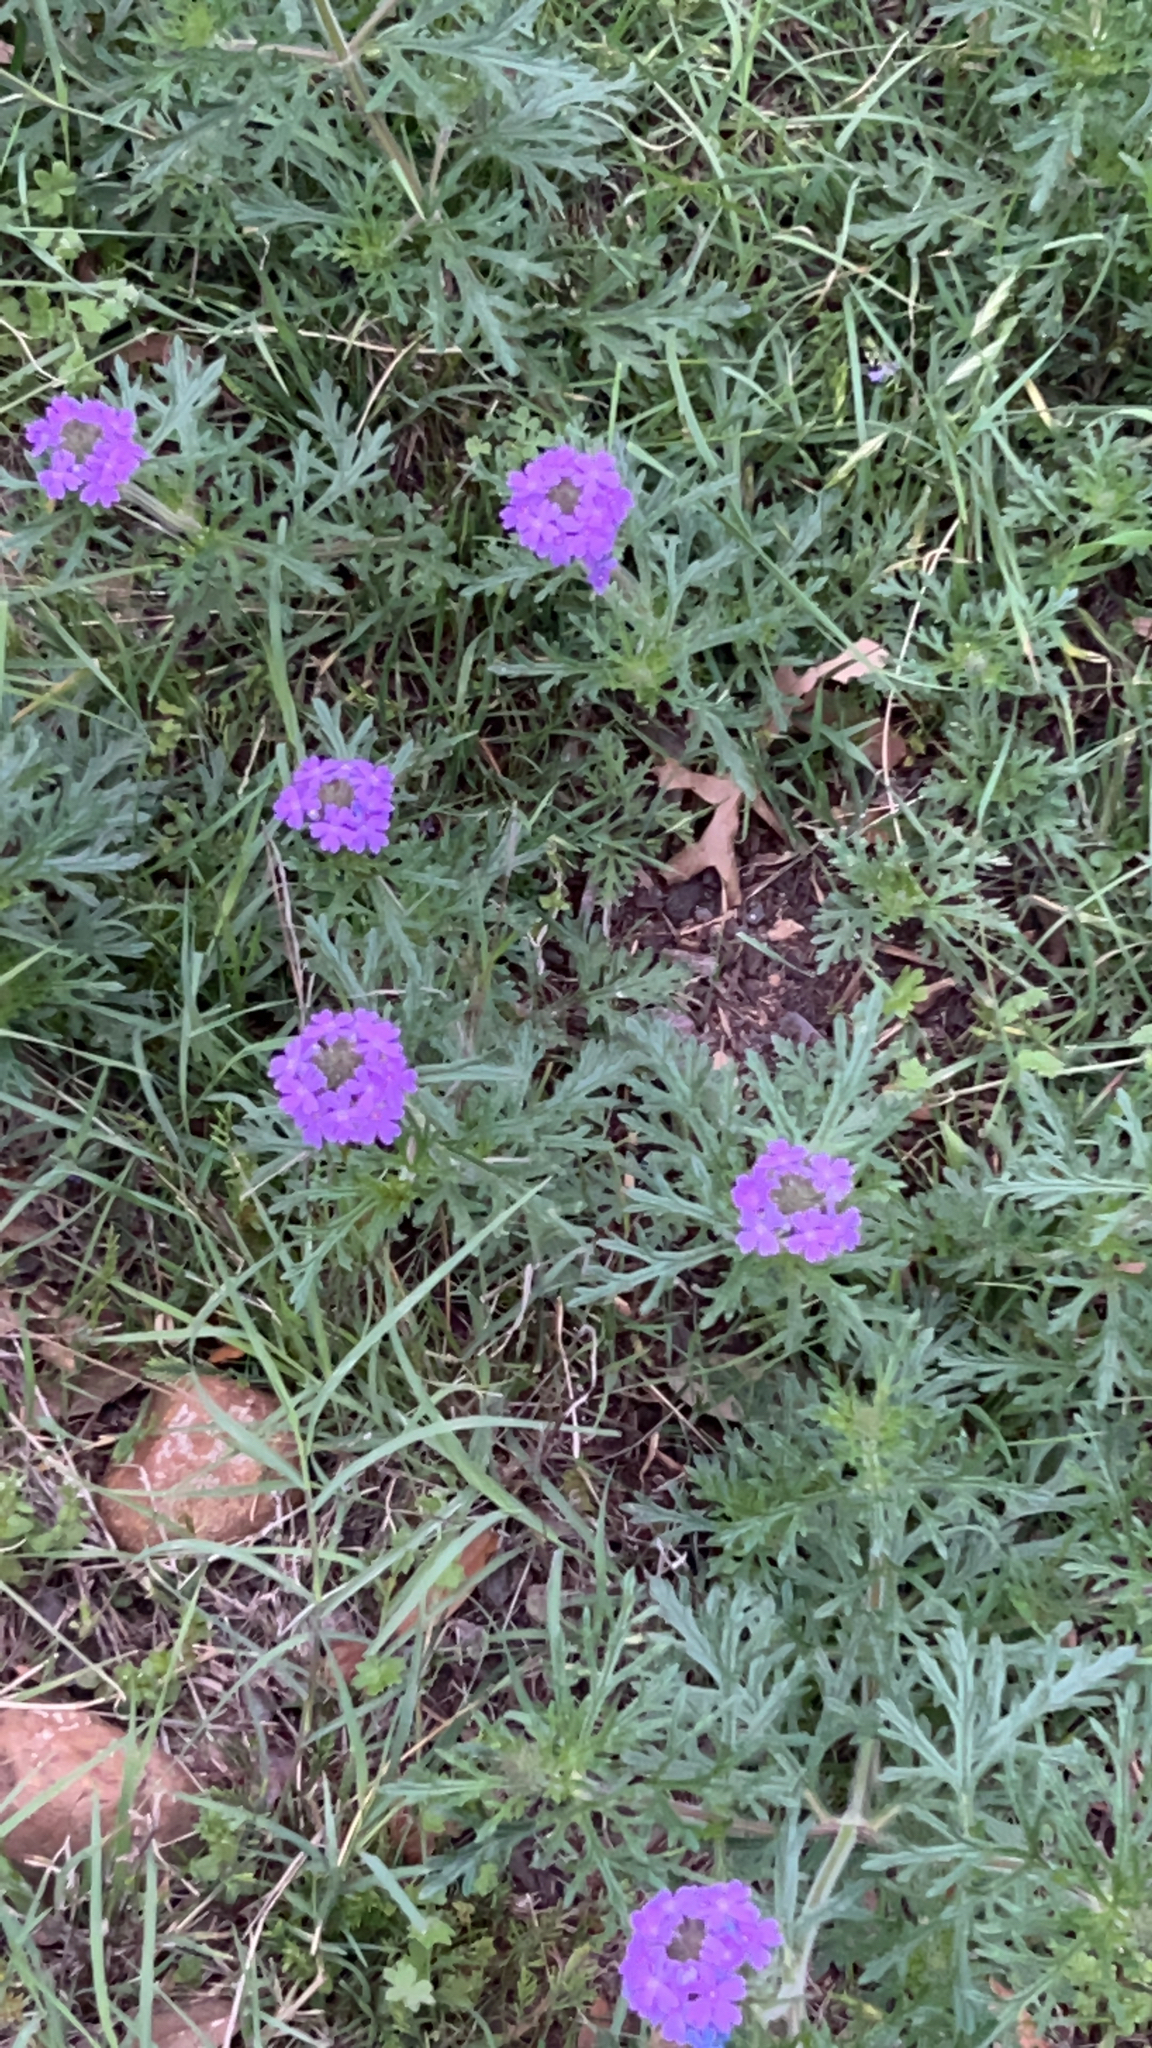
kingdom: Plantae
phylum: Tracheophyta
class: Magnoliopsida
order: Lamiales
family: Verbenaceae
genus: Verbena
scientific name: Verbena bipinnatifida
